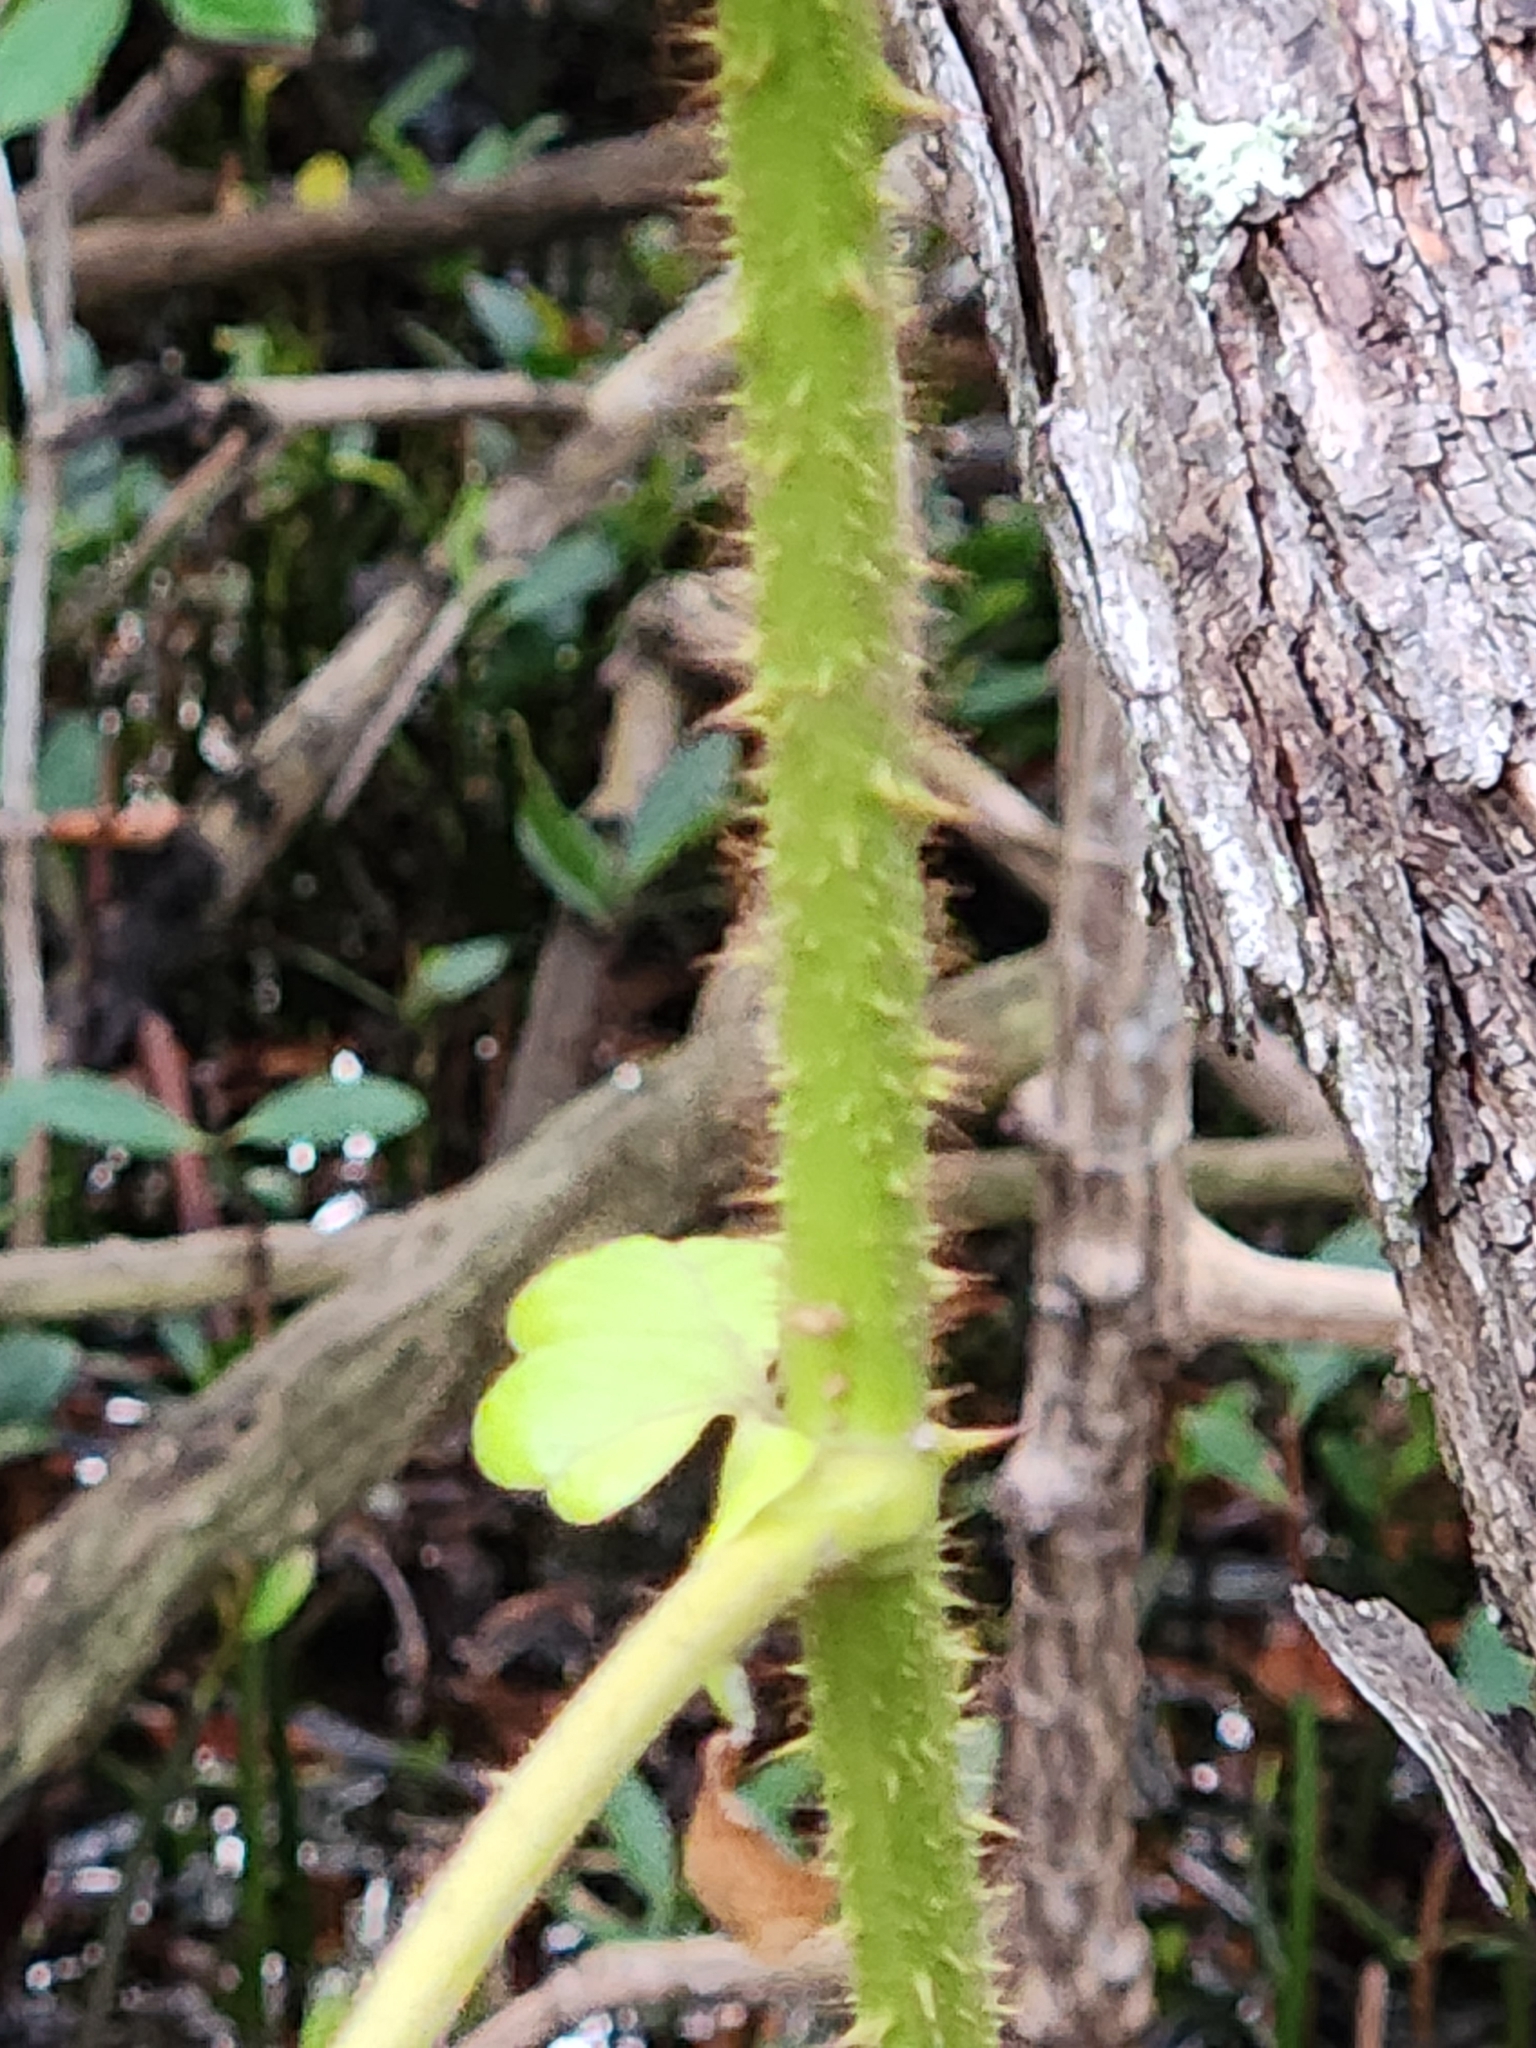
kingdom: Plantae
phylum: Tracheophyta
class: Magnoliopsida
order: Fabales
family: Fabaceae
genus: Guilandina
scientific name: Guilandina bonduc
